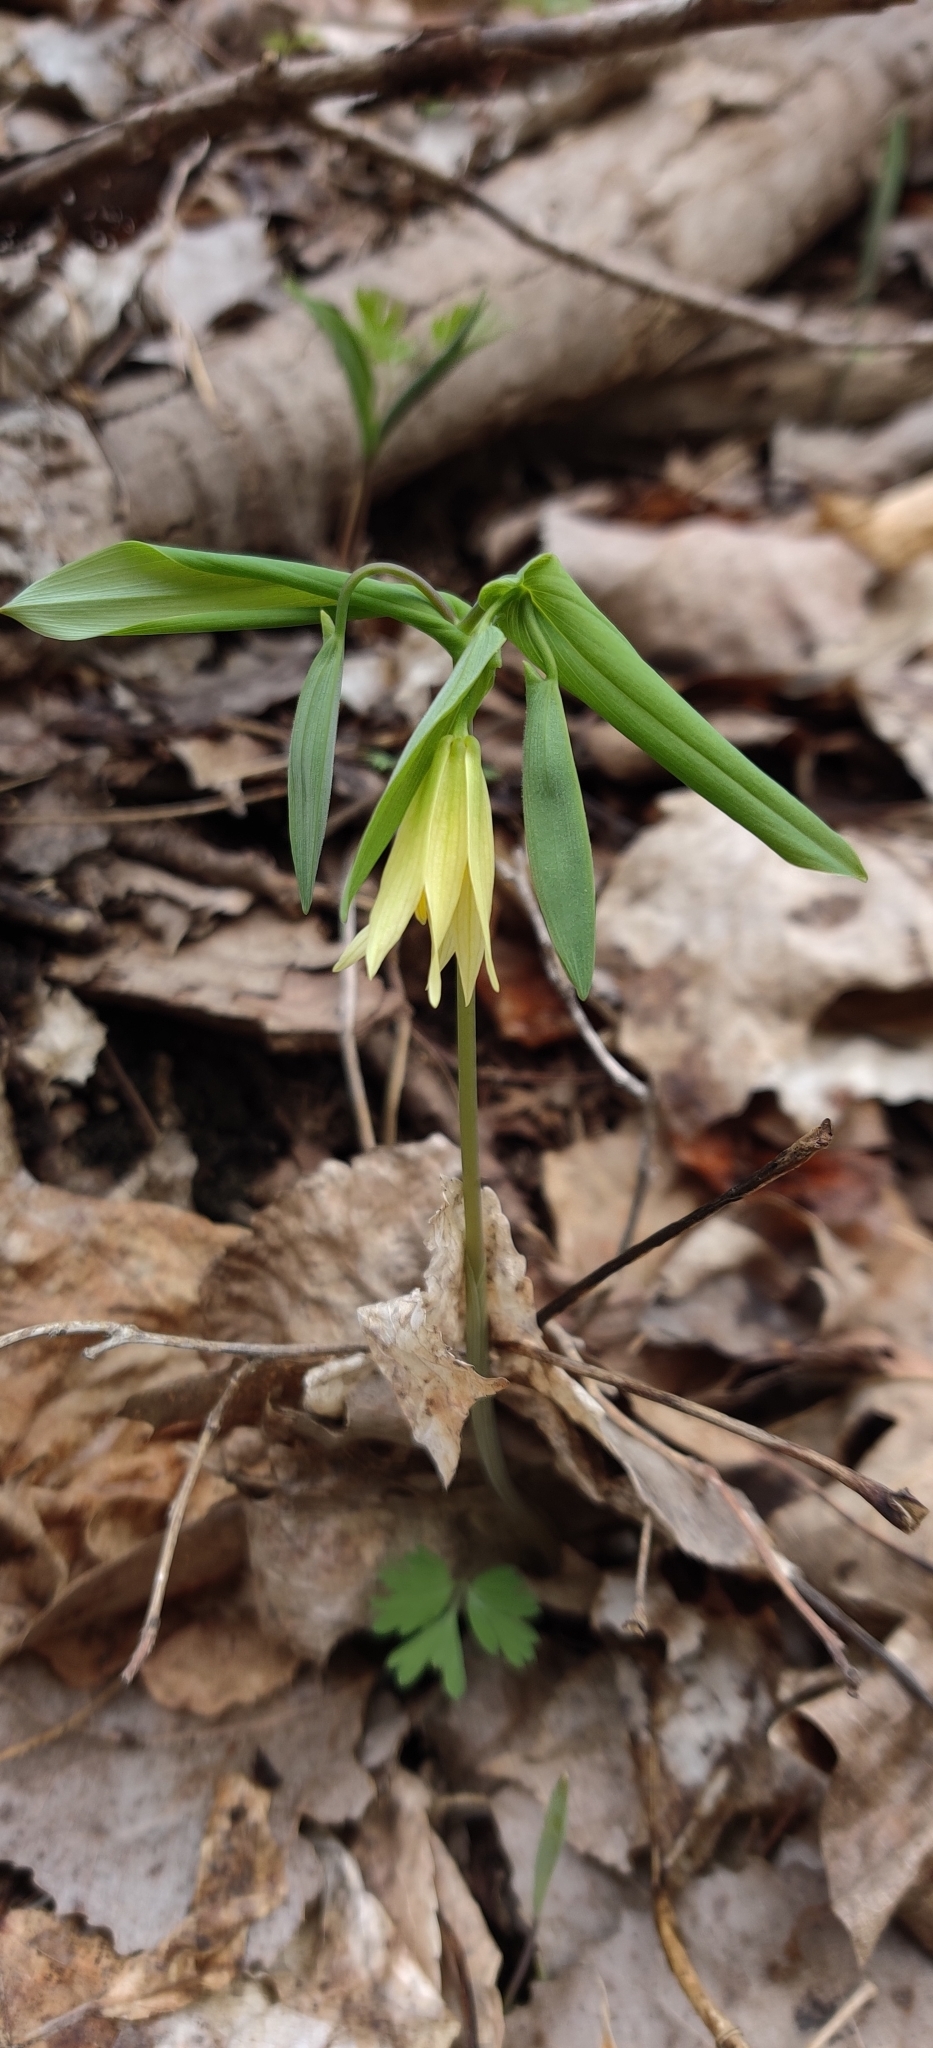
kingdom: Plantae
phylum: Tracheophyta
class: Liliopsida
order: Liliales
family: Colchicaceae
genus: Uvularia
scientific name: Uvularia grandiflora
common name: Bellwort
